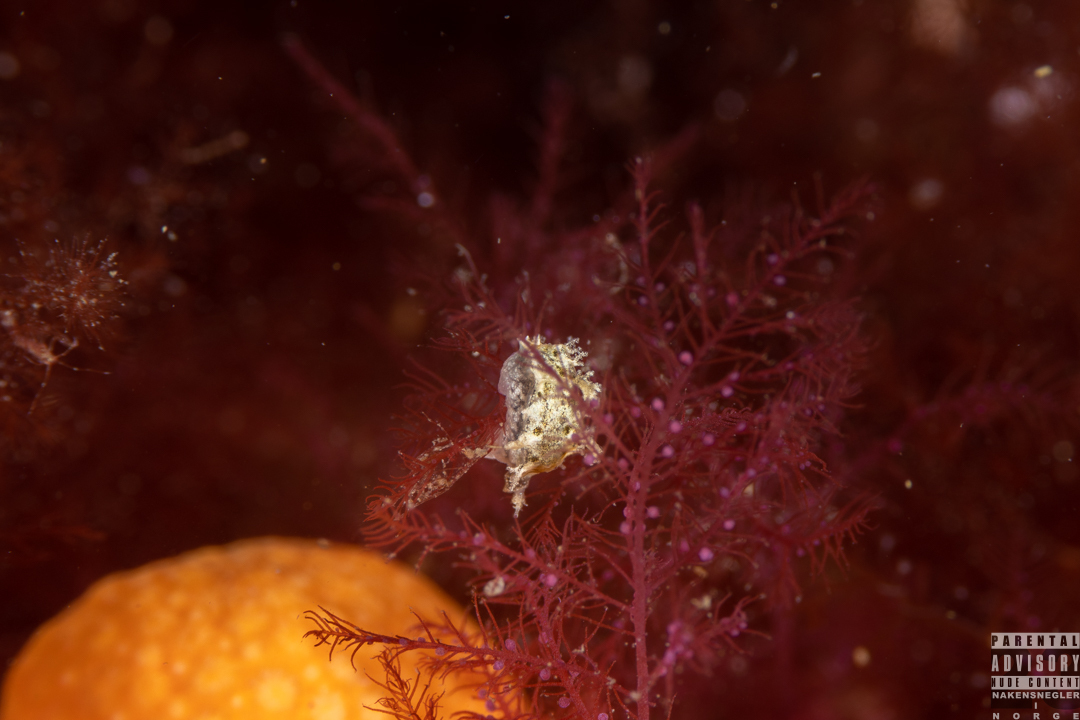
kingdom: Animalia
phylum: Mollusca
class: Gastropoda
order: Nudibranchia
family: Tritoniidae
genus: Duvaucelia
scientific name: Duvaucelia plebeia
